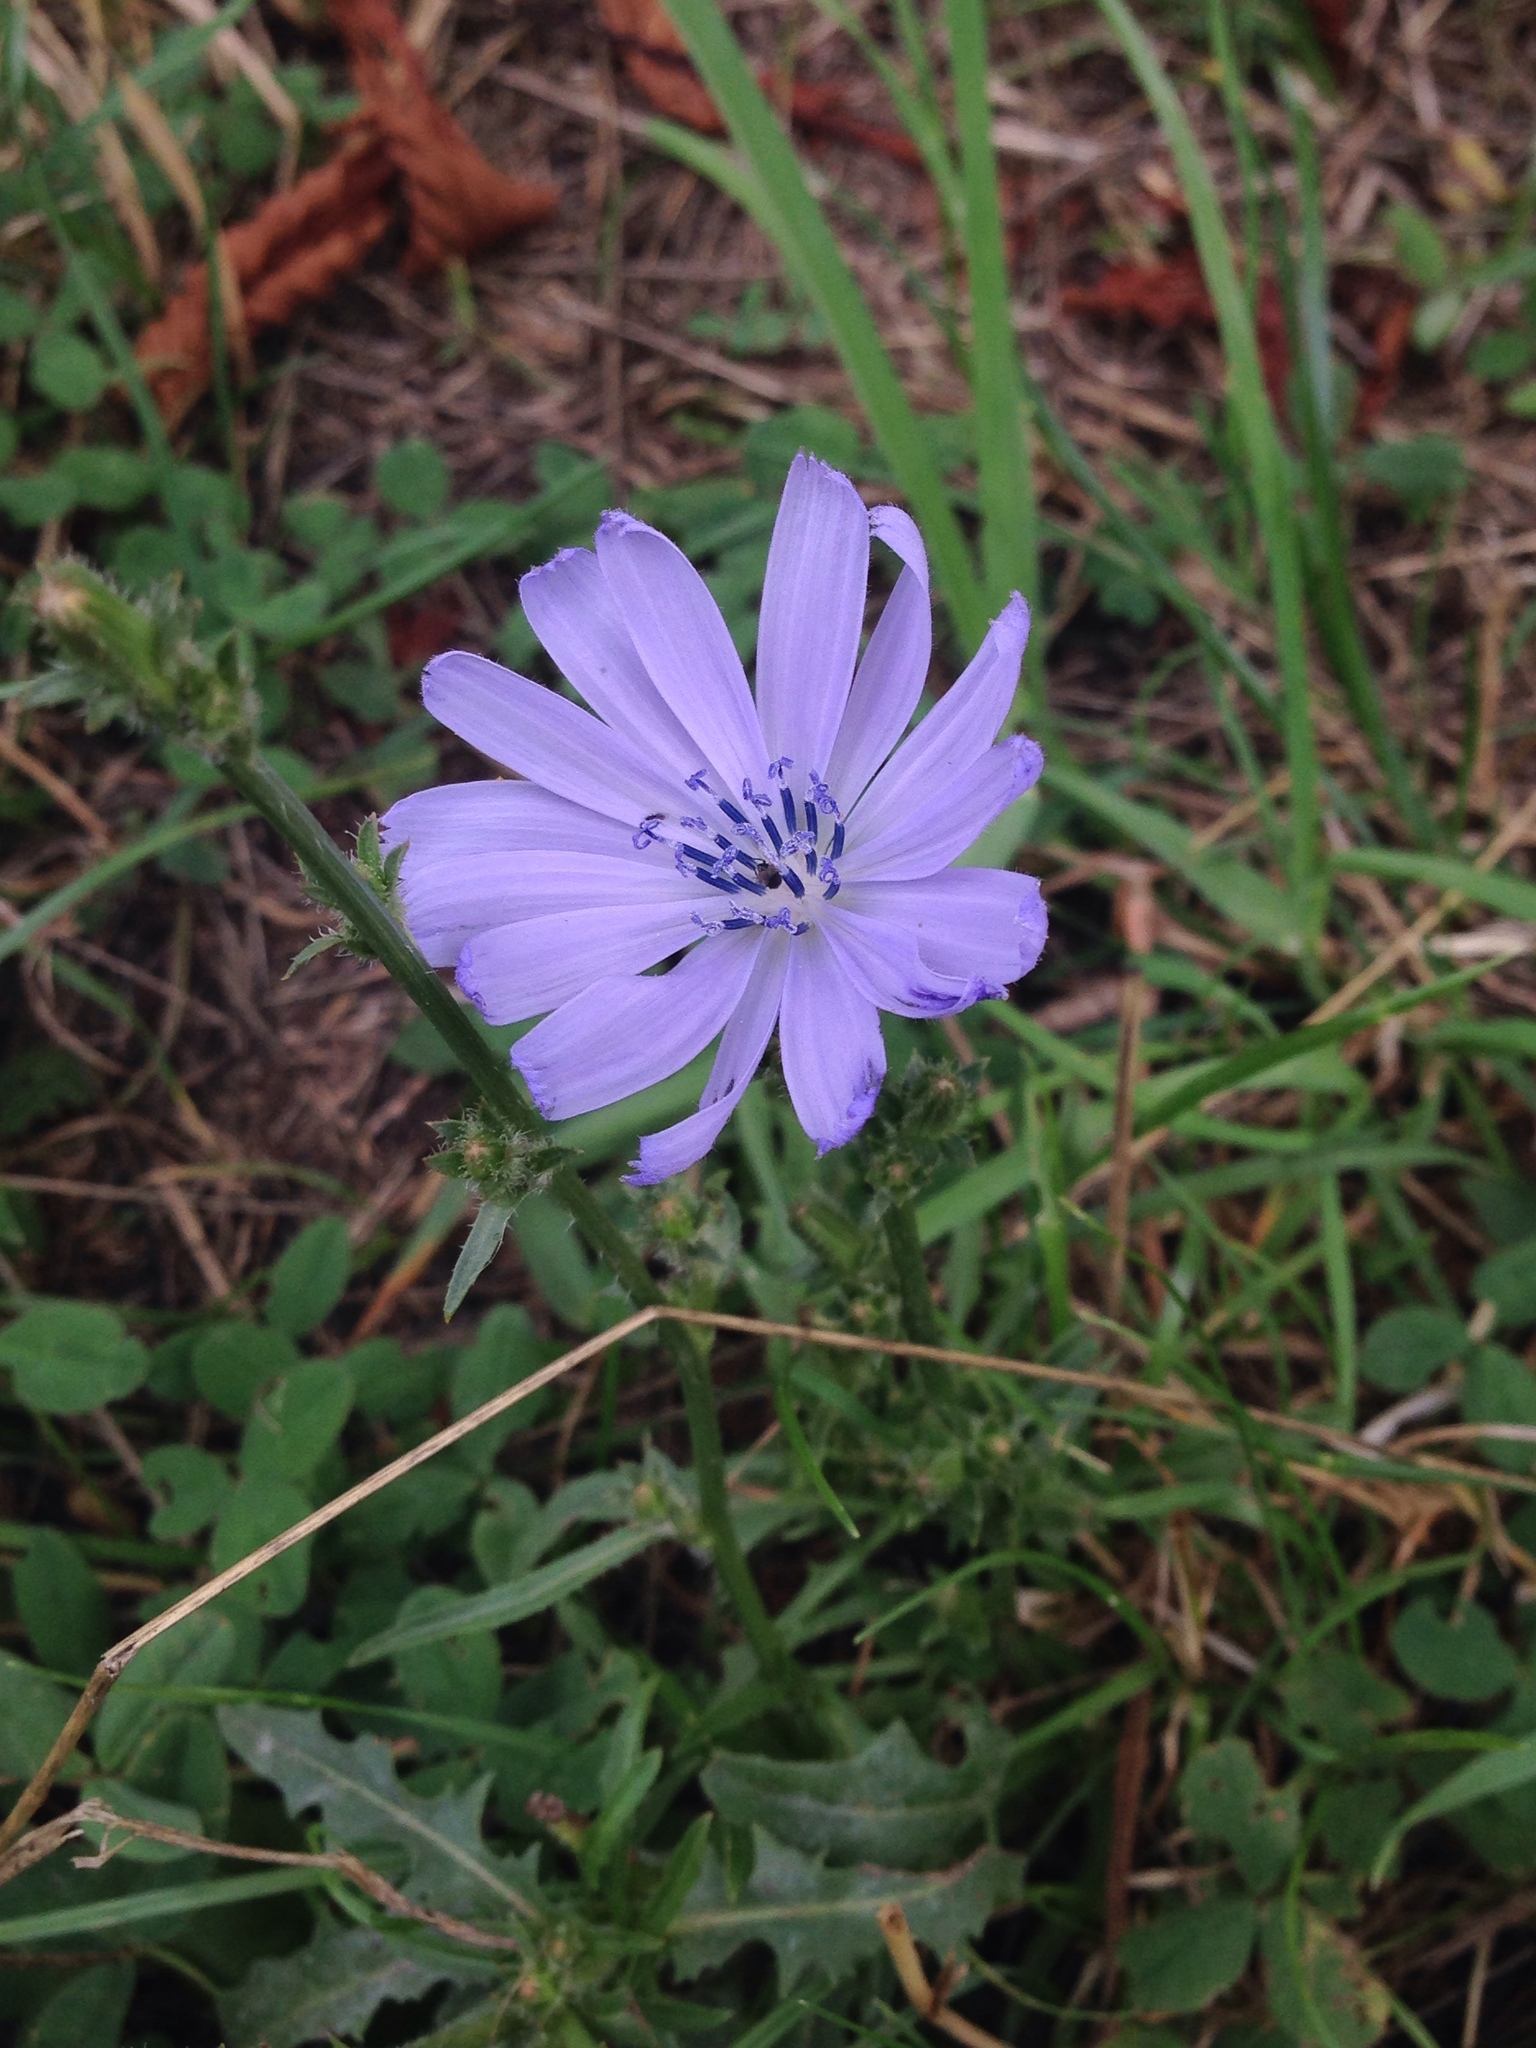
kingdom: Plantae
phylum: Tracheophyta
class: Magnoliopsida
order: Asterales
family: Asteraceae
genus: Cichorium
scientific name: Cichorium intybus
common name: Chicory
